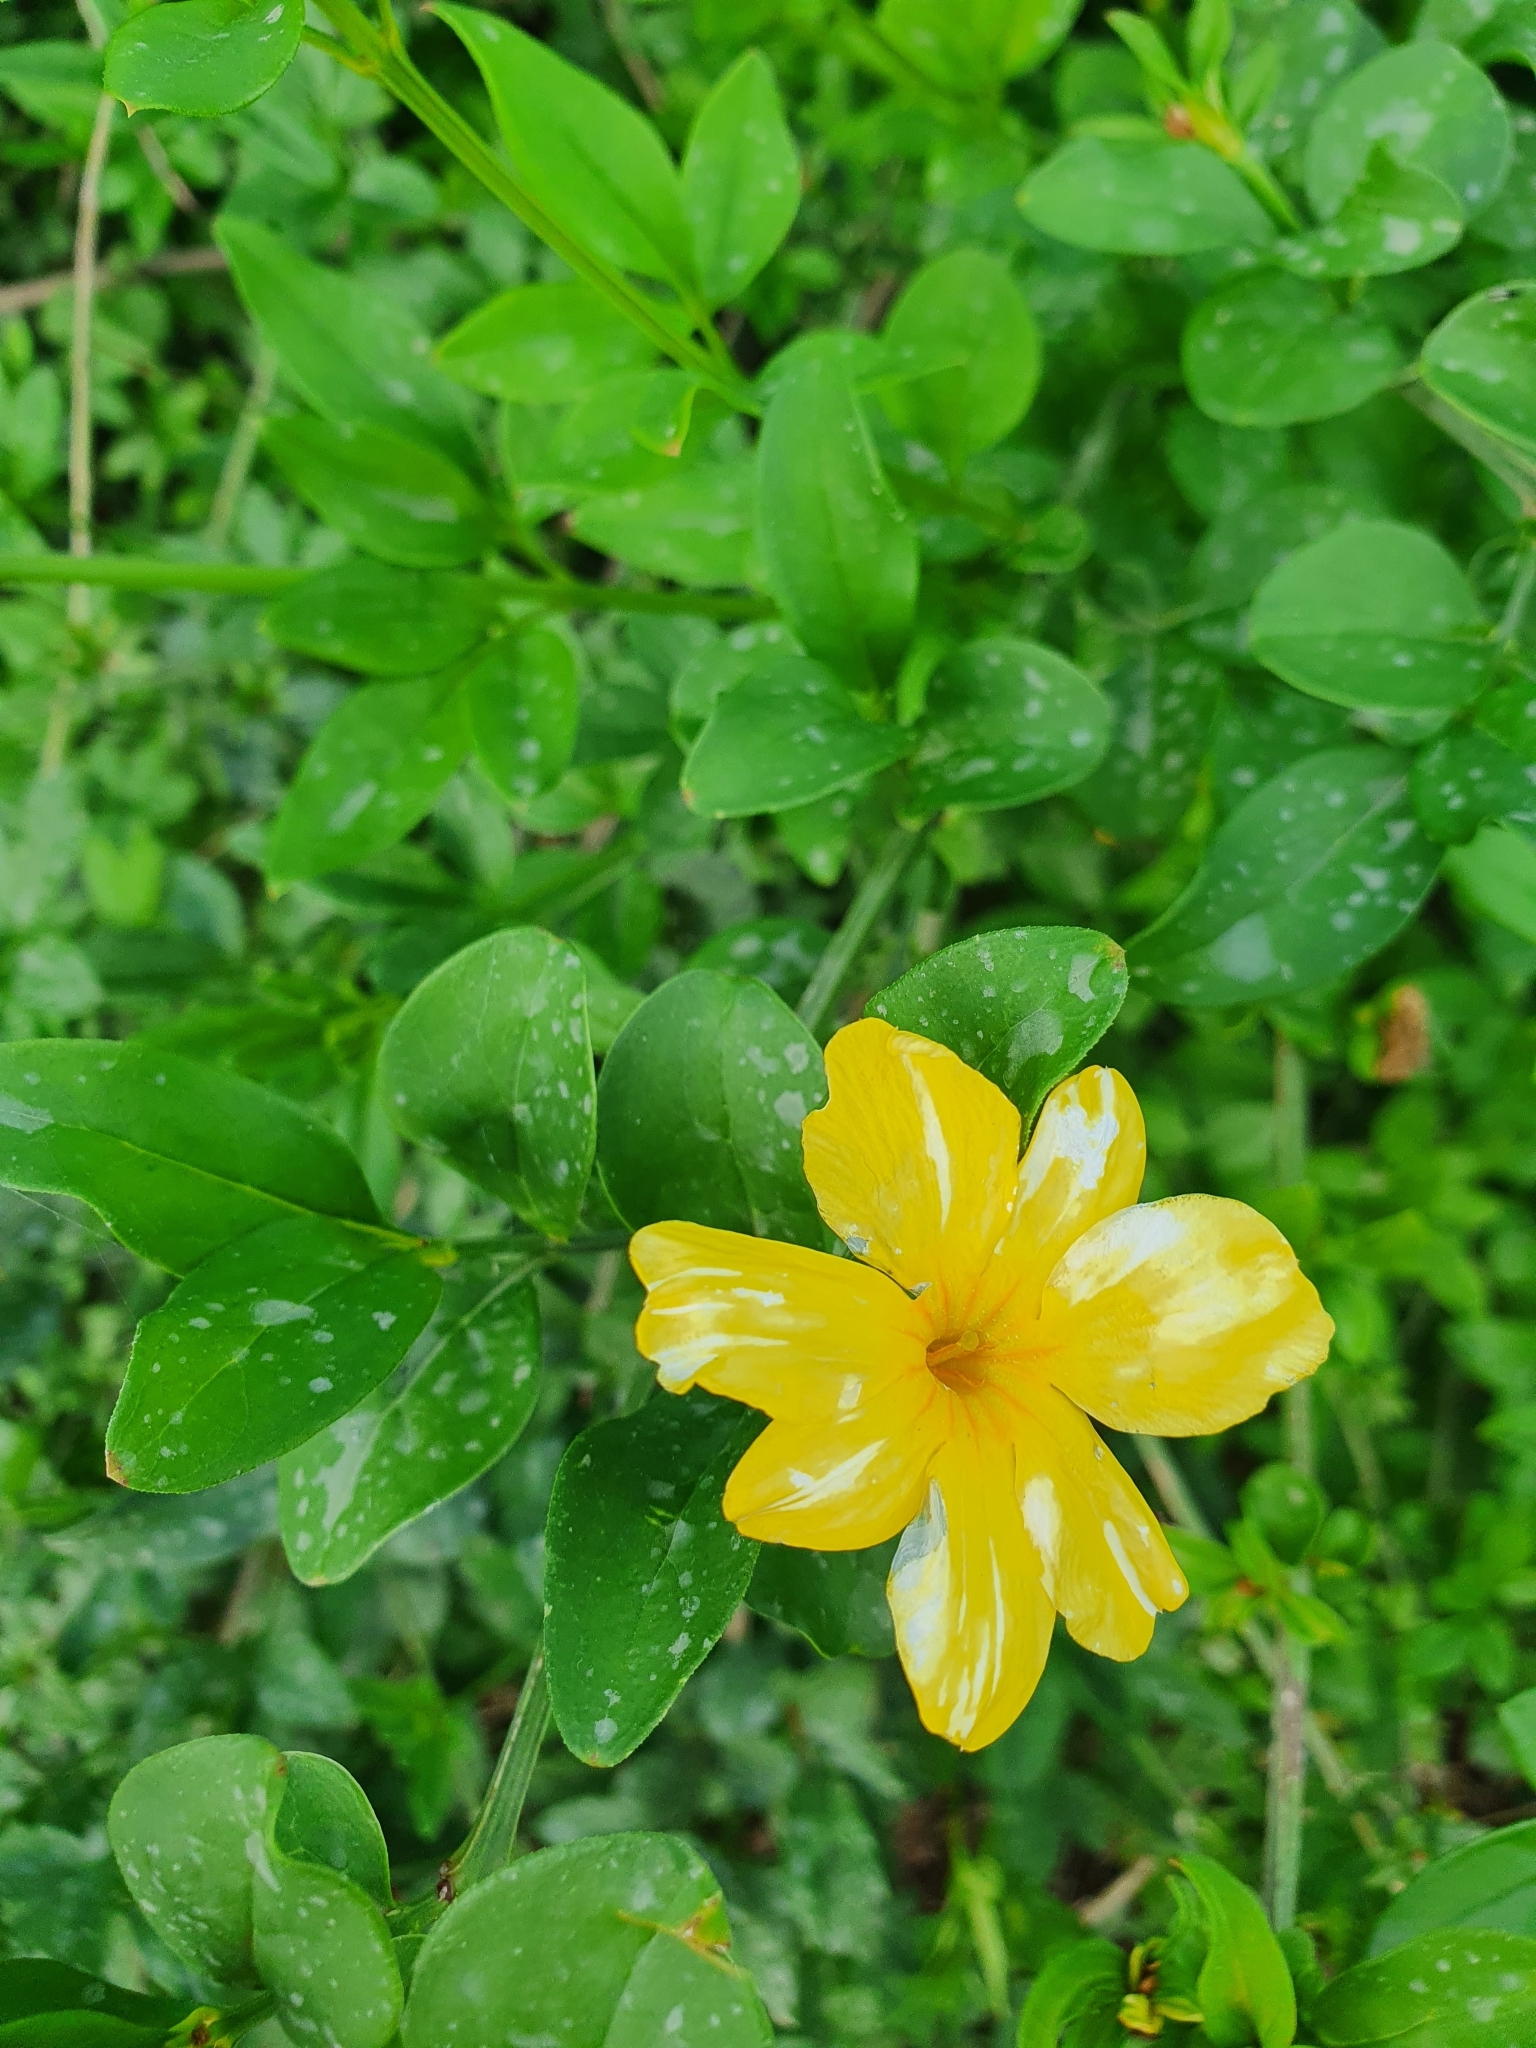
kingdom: Plantae
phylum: Tracheophyta
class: Magnoliopsida
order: Lamiales
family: Oleaceae
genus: Jasminum
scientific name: Jasminum mesnyi
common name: Japanese jasmine
